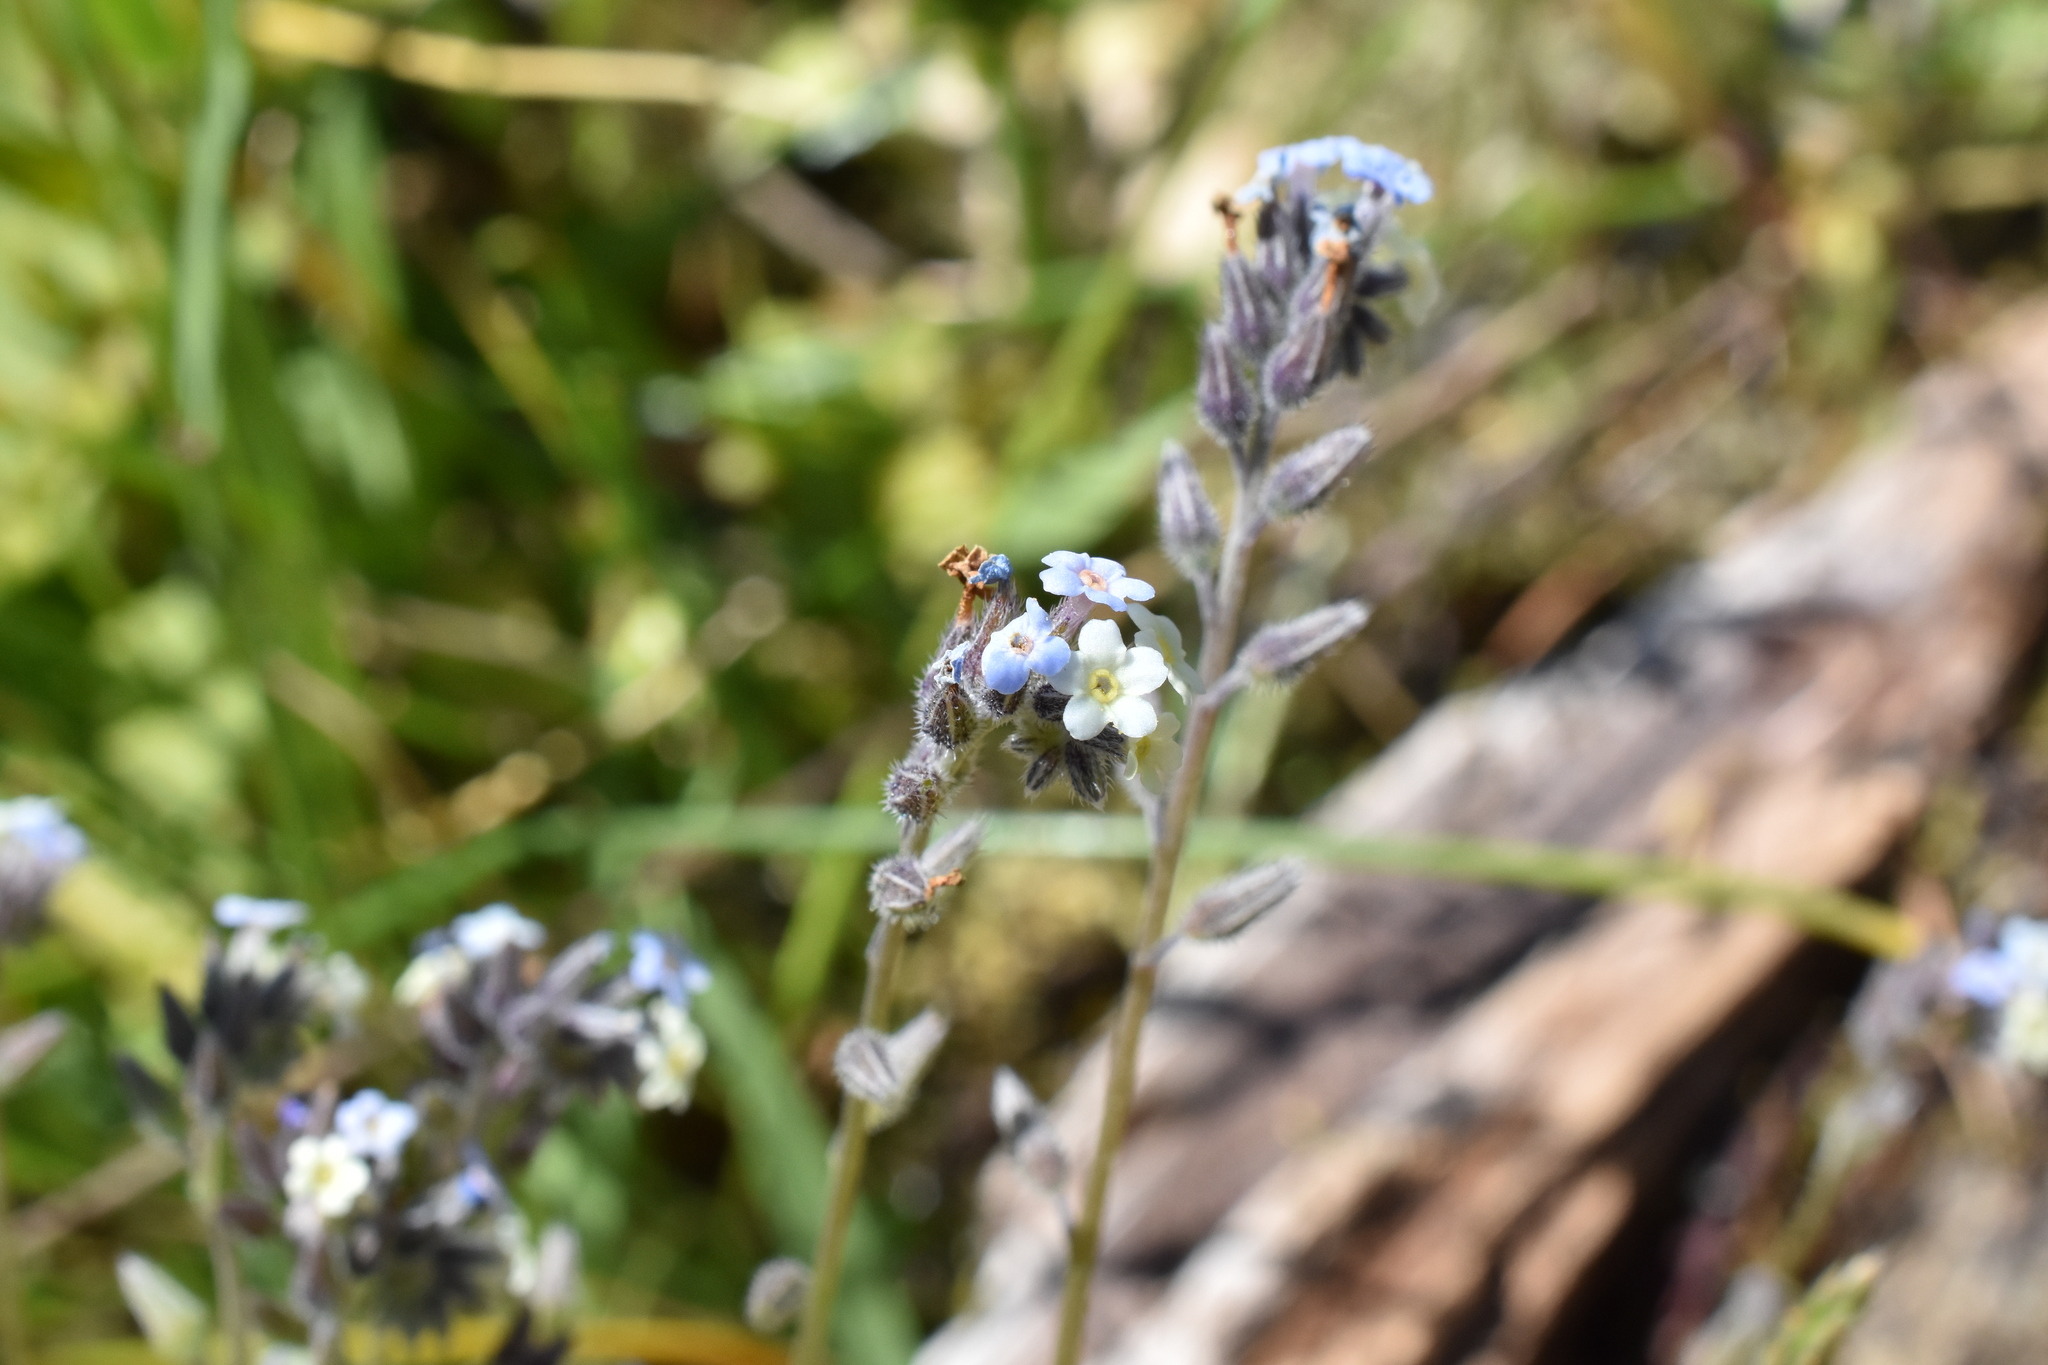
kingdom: Plantae
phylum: Tracheophyta
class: Magnoliopsida
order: Boraginales
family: Boraginaceae
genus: Myosotis
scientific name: Myosotis discolor
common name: Changing forget-me-not
